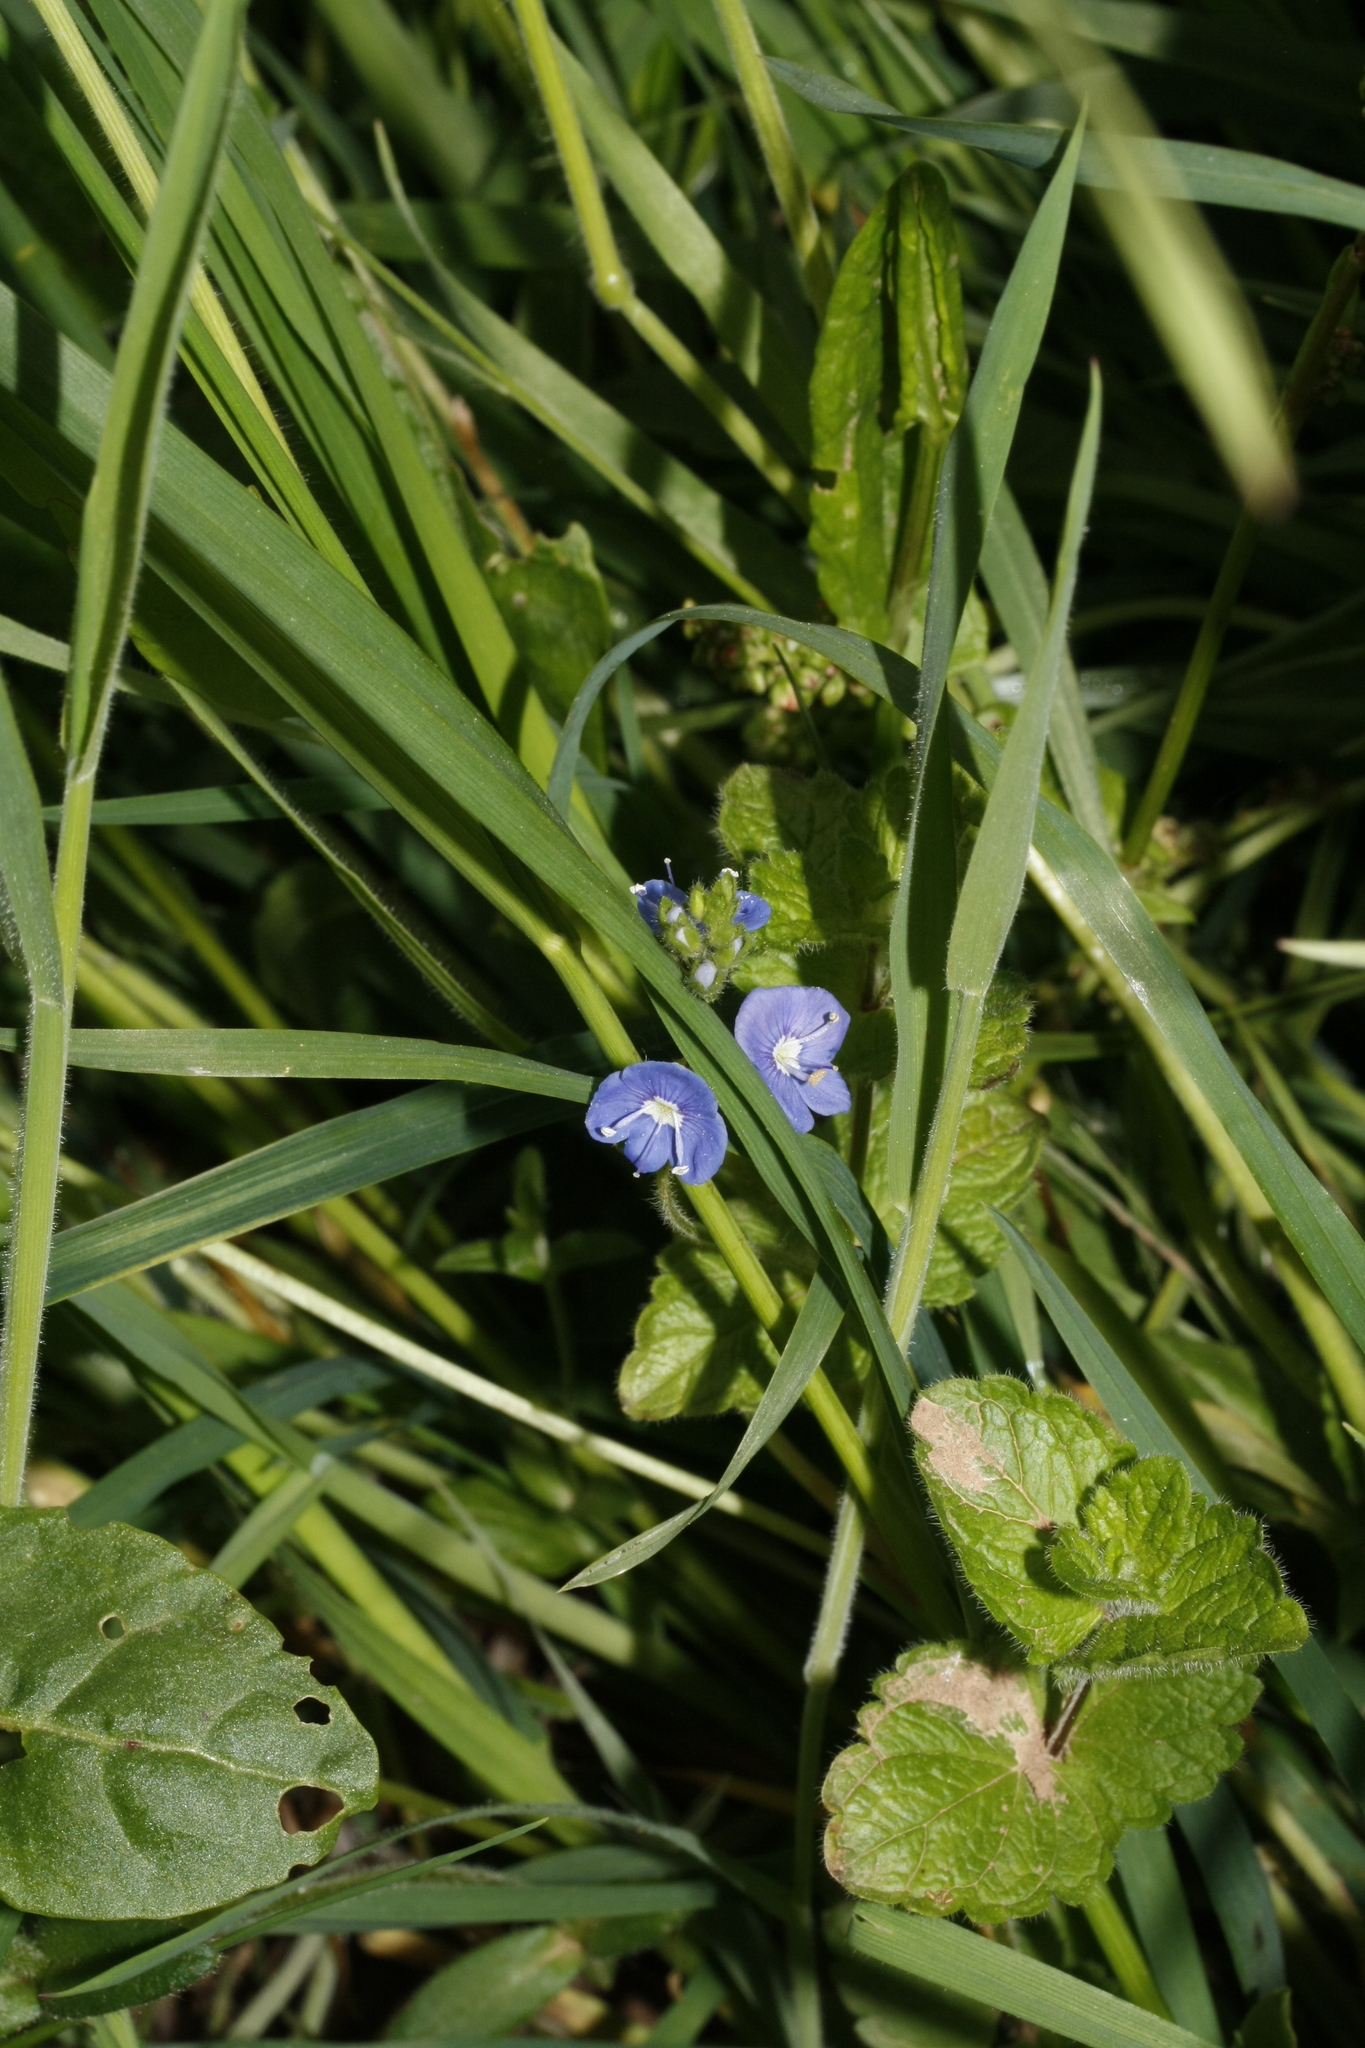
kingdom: Plantae
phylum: Tracheophyta
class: Magnoliopsida
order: Lamiales
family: Plantaginaceae
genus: Veronica
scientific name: Veronica chamaedrys
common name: Germander speedwell
